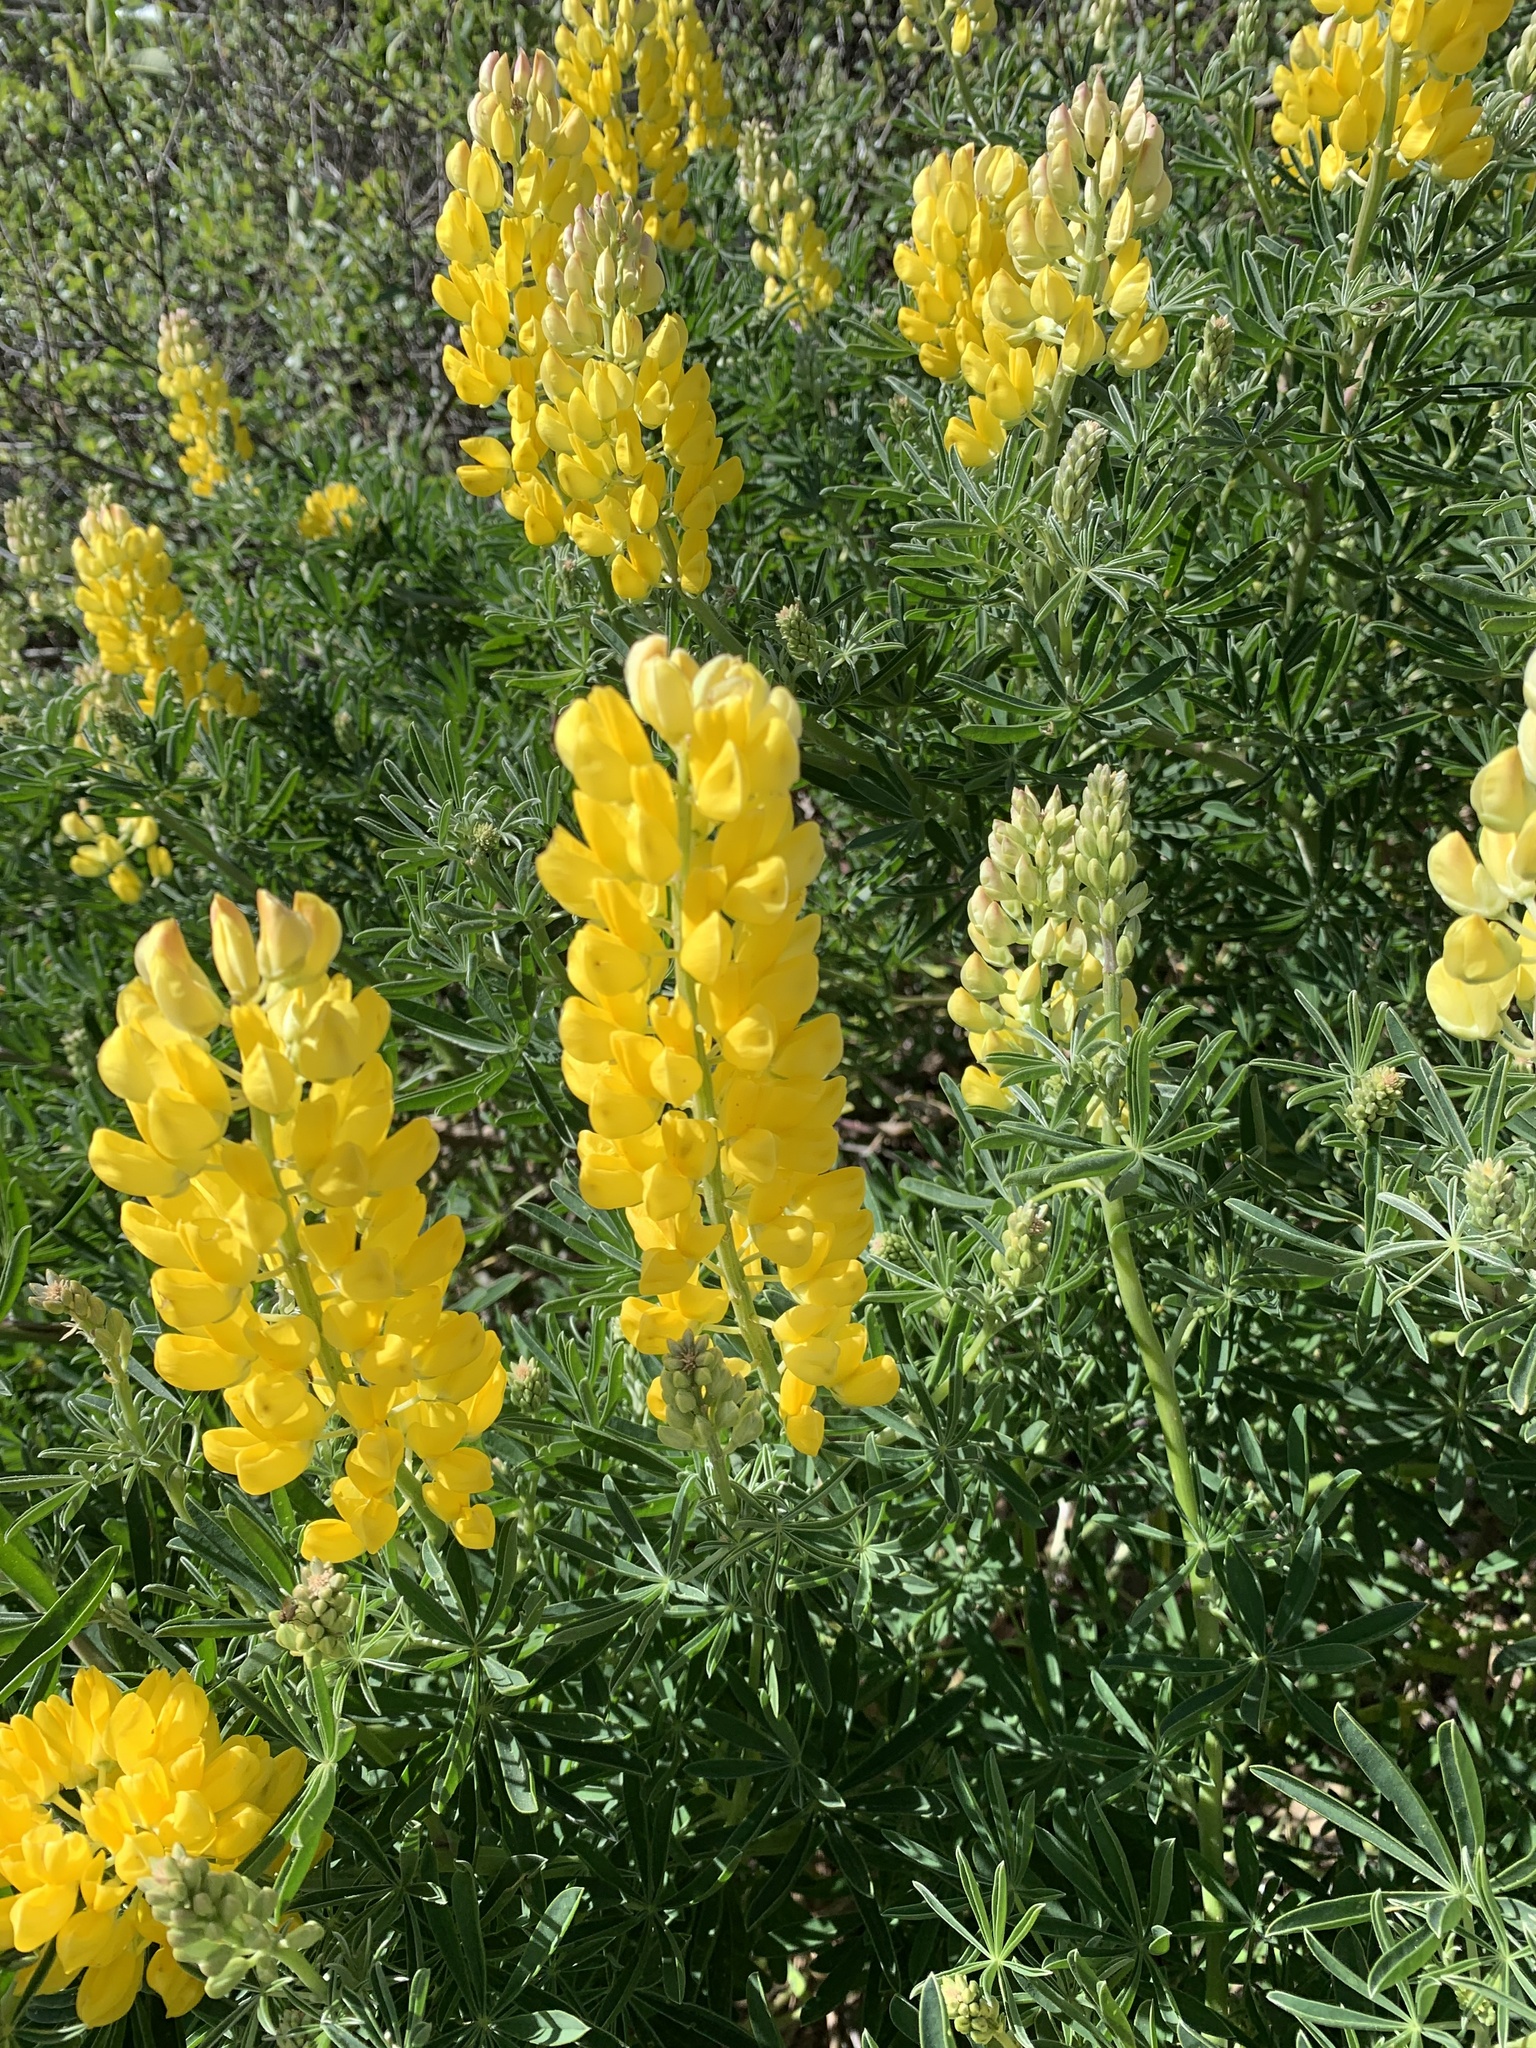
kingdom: Plantae
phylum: Tracheophyta
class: Magnoliopsida
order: Fabales
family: Fabaceae
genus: Lupinus
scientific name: Lupinus arboreus
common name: Yellow bush lupine
